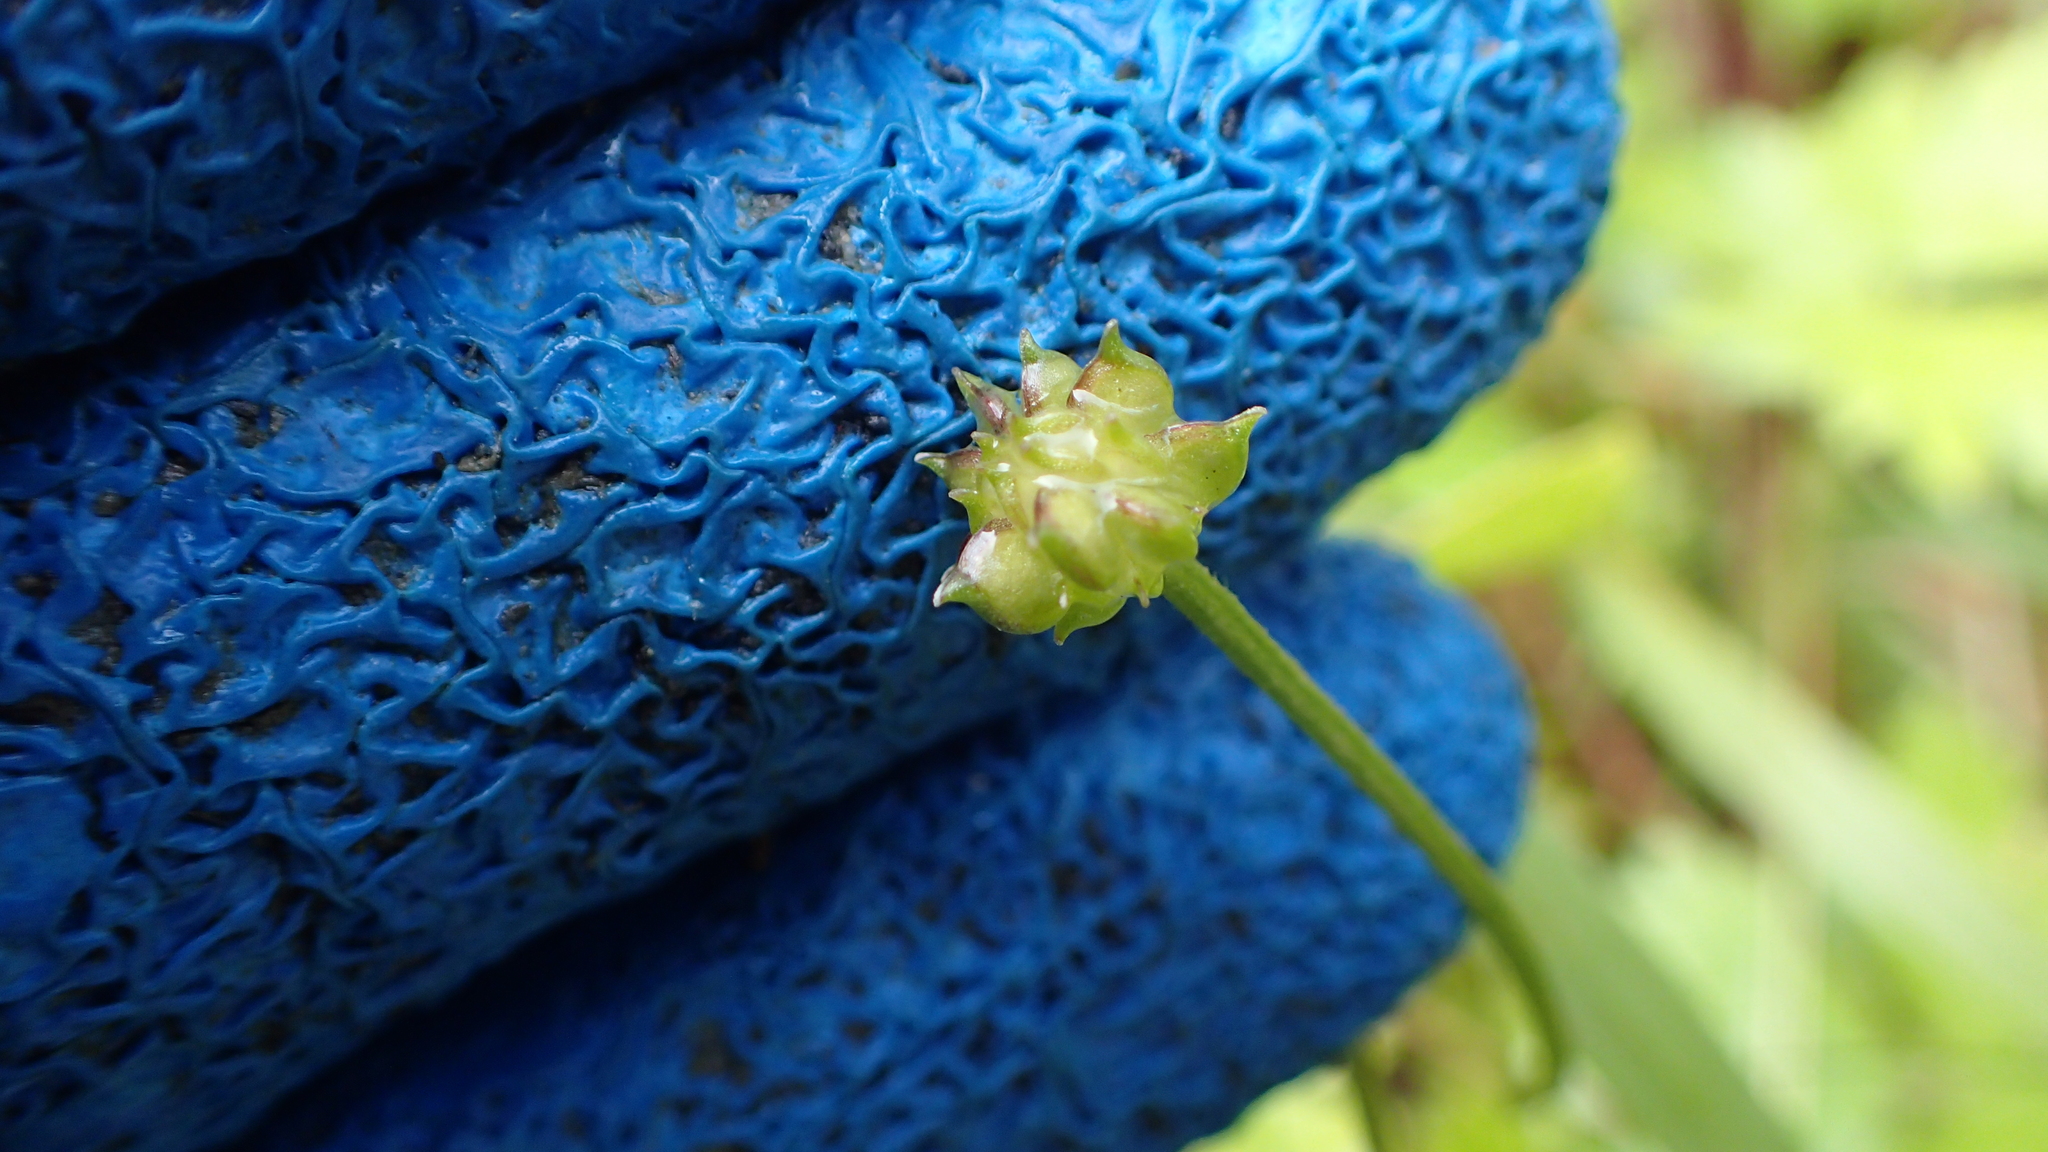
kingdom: Plantae
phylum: Tracheophyta
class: Magnoliopsida
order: Ranunculales
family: Ranunculaceae
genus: Ranunculus
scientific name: Ranunculus repens
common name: Creeping buttercup
